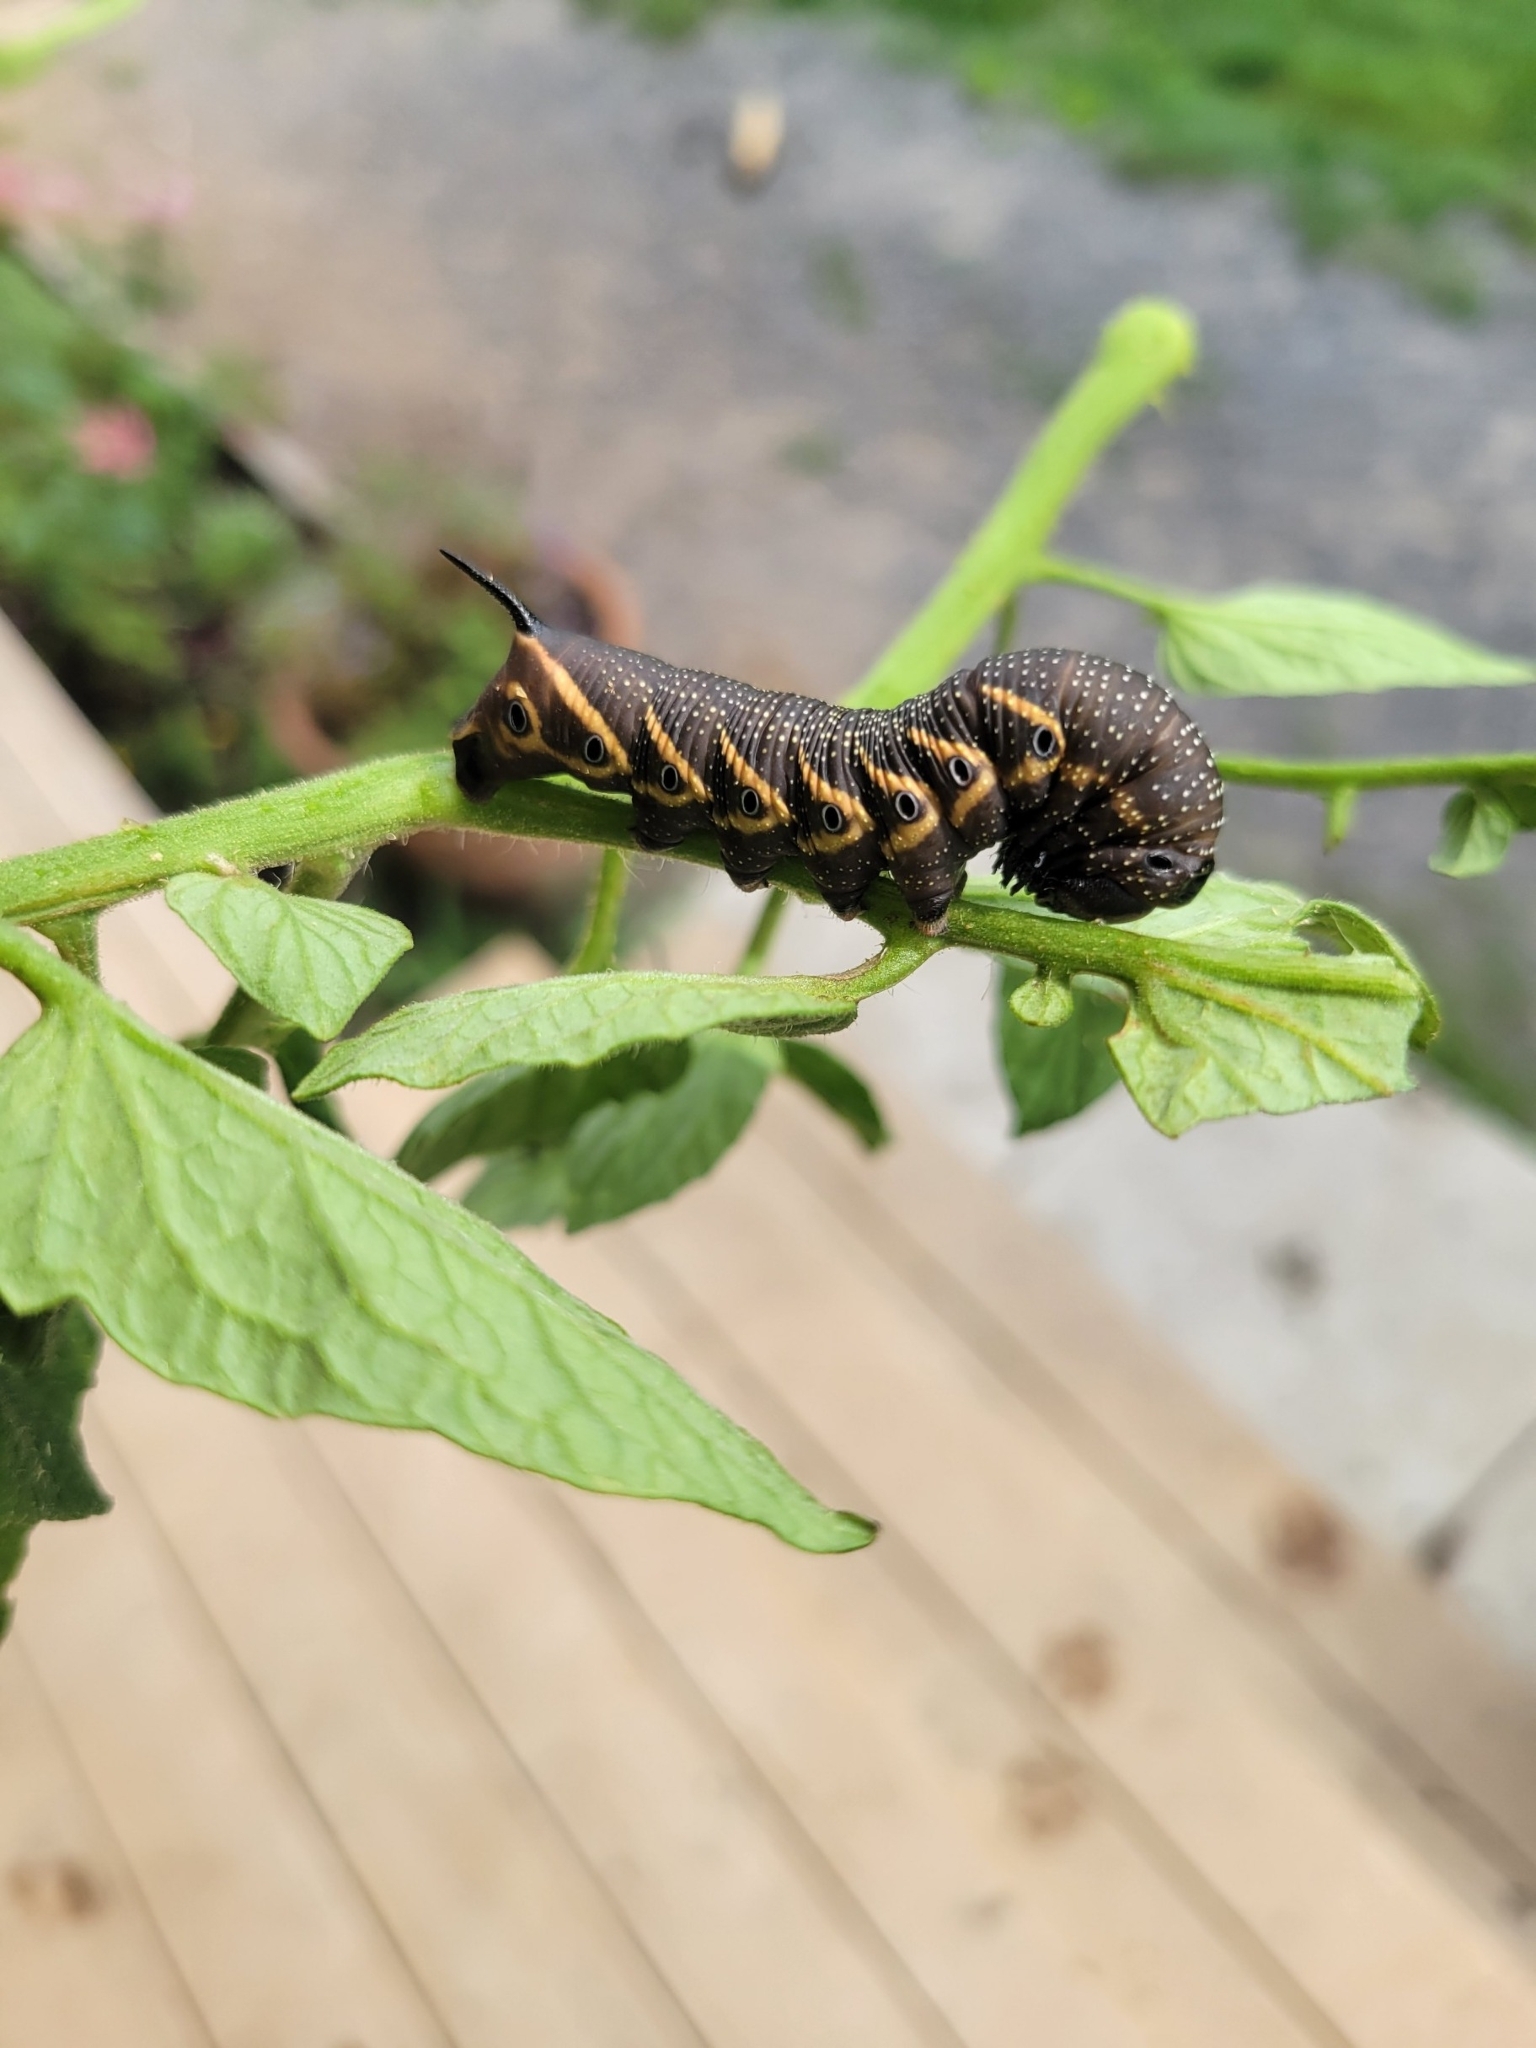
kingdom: Animalia
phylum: Arthropoda
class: Insecta
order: Lepidoptera
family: Sphingidae
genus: Manduca
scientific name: Manduca quinquemaculatus
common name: Five-spotted hawk-moth
